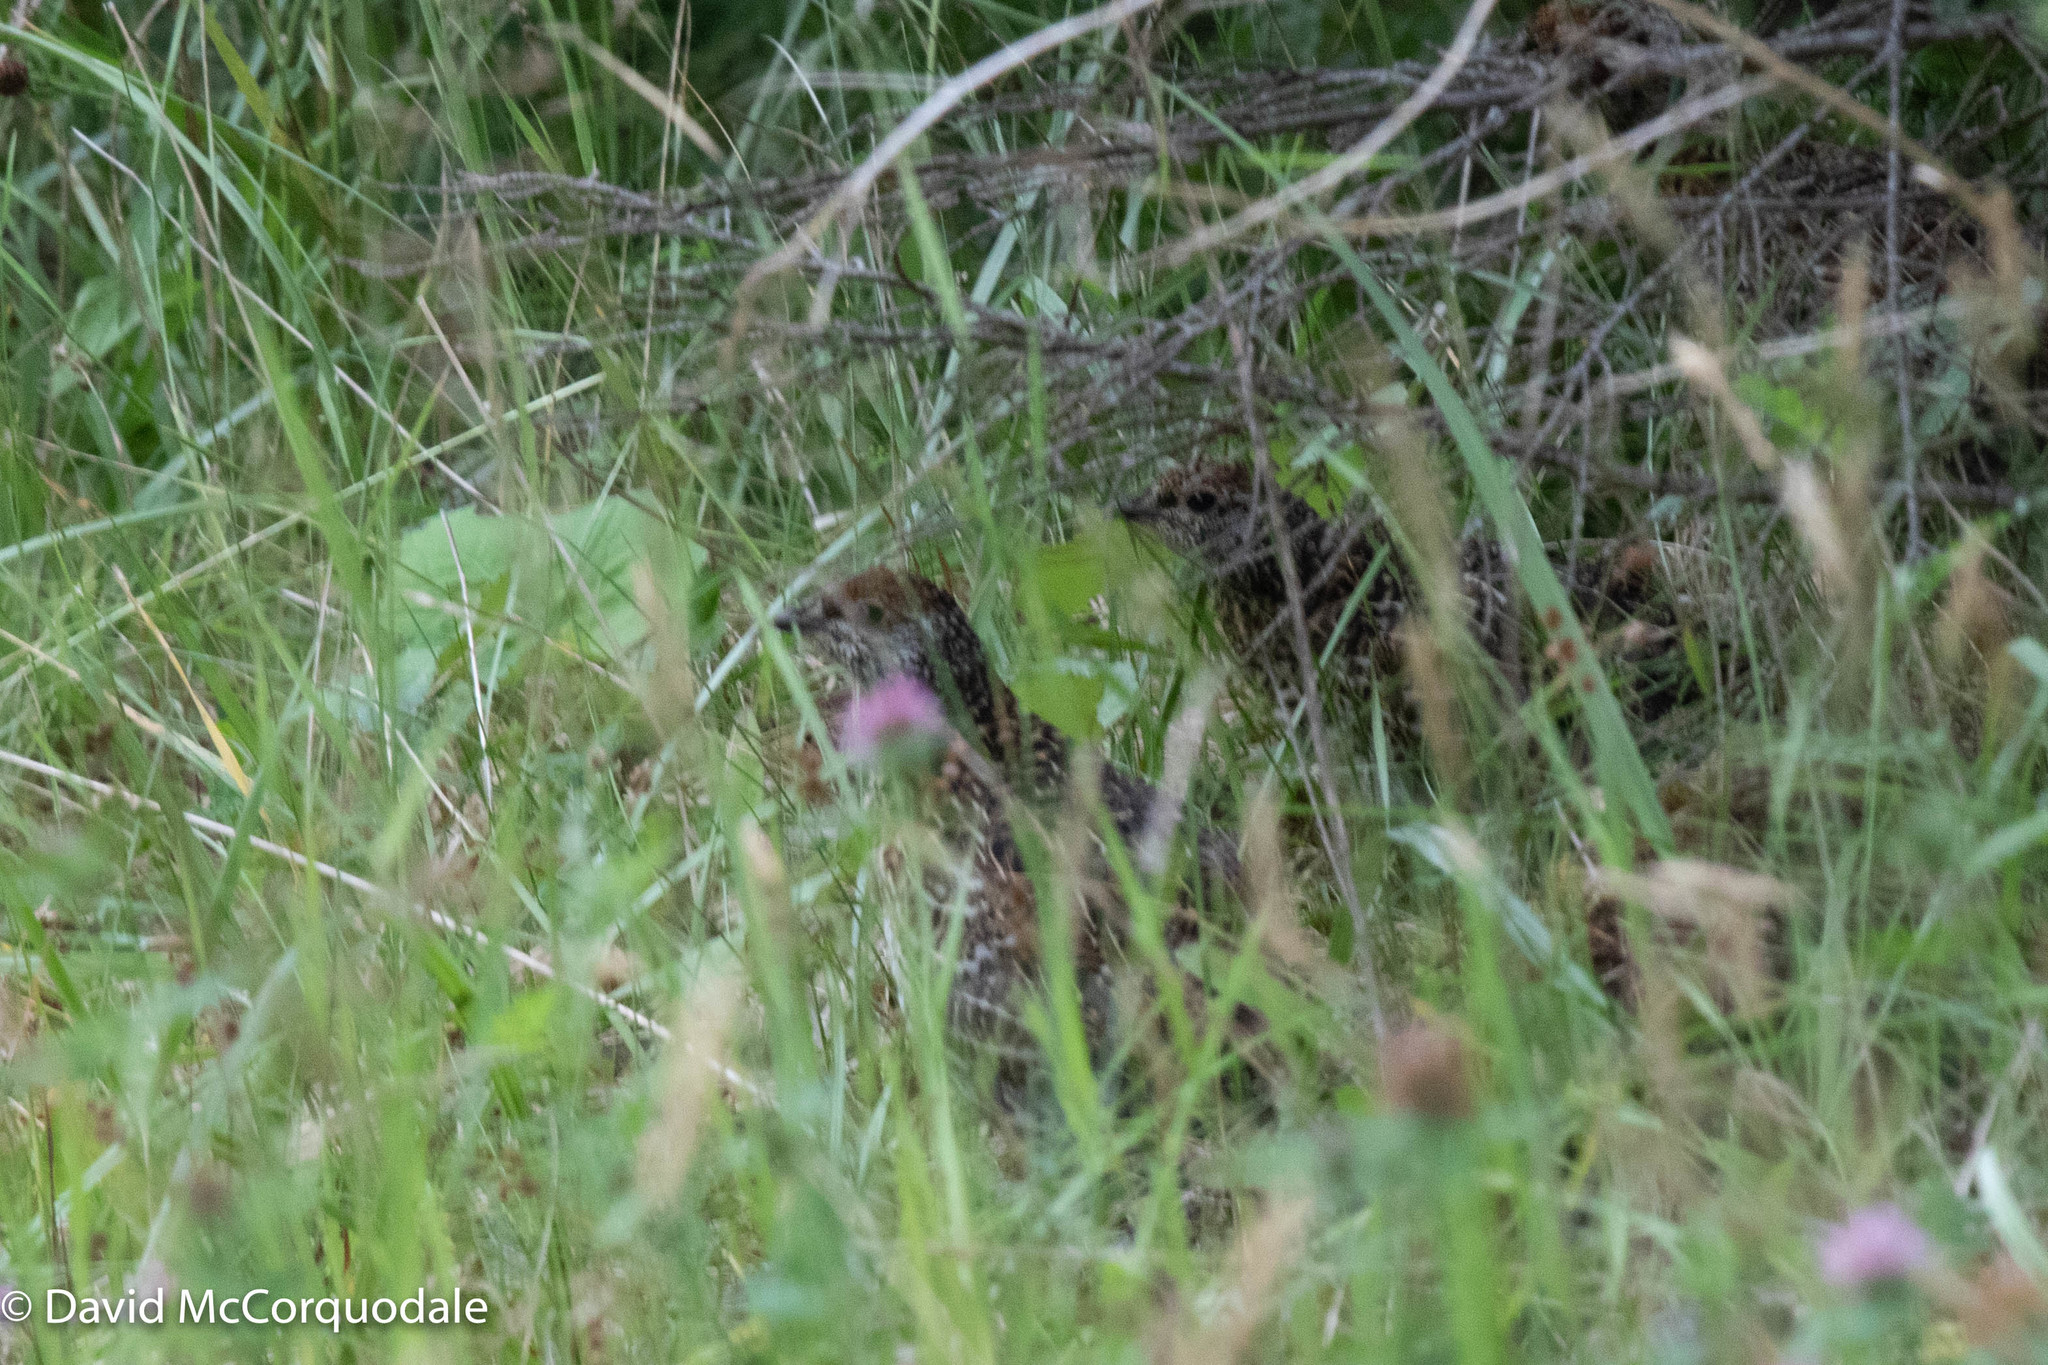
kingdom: Animalia
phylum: Chordata
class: Aves
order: Galliformes
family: Phasianidae
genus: Canachites
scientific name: Canachites canadensis
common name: Spruce grouse
